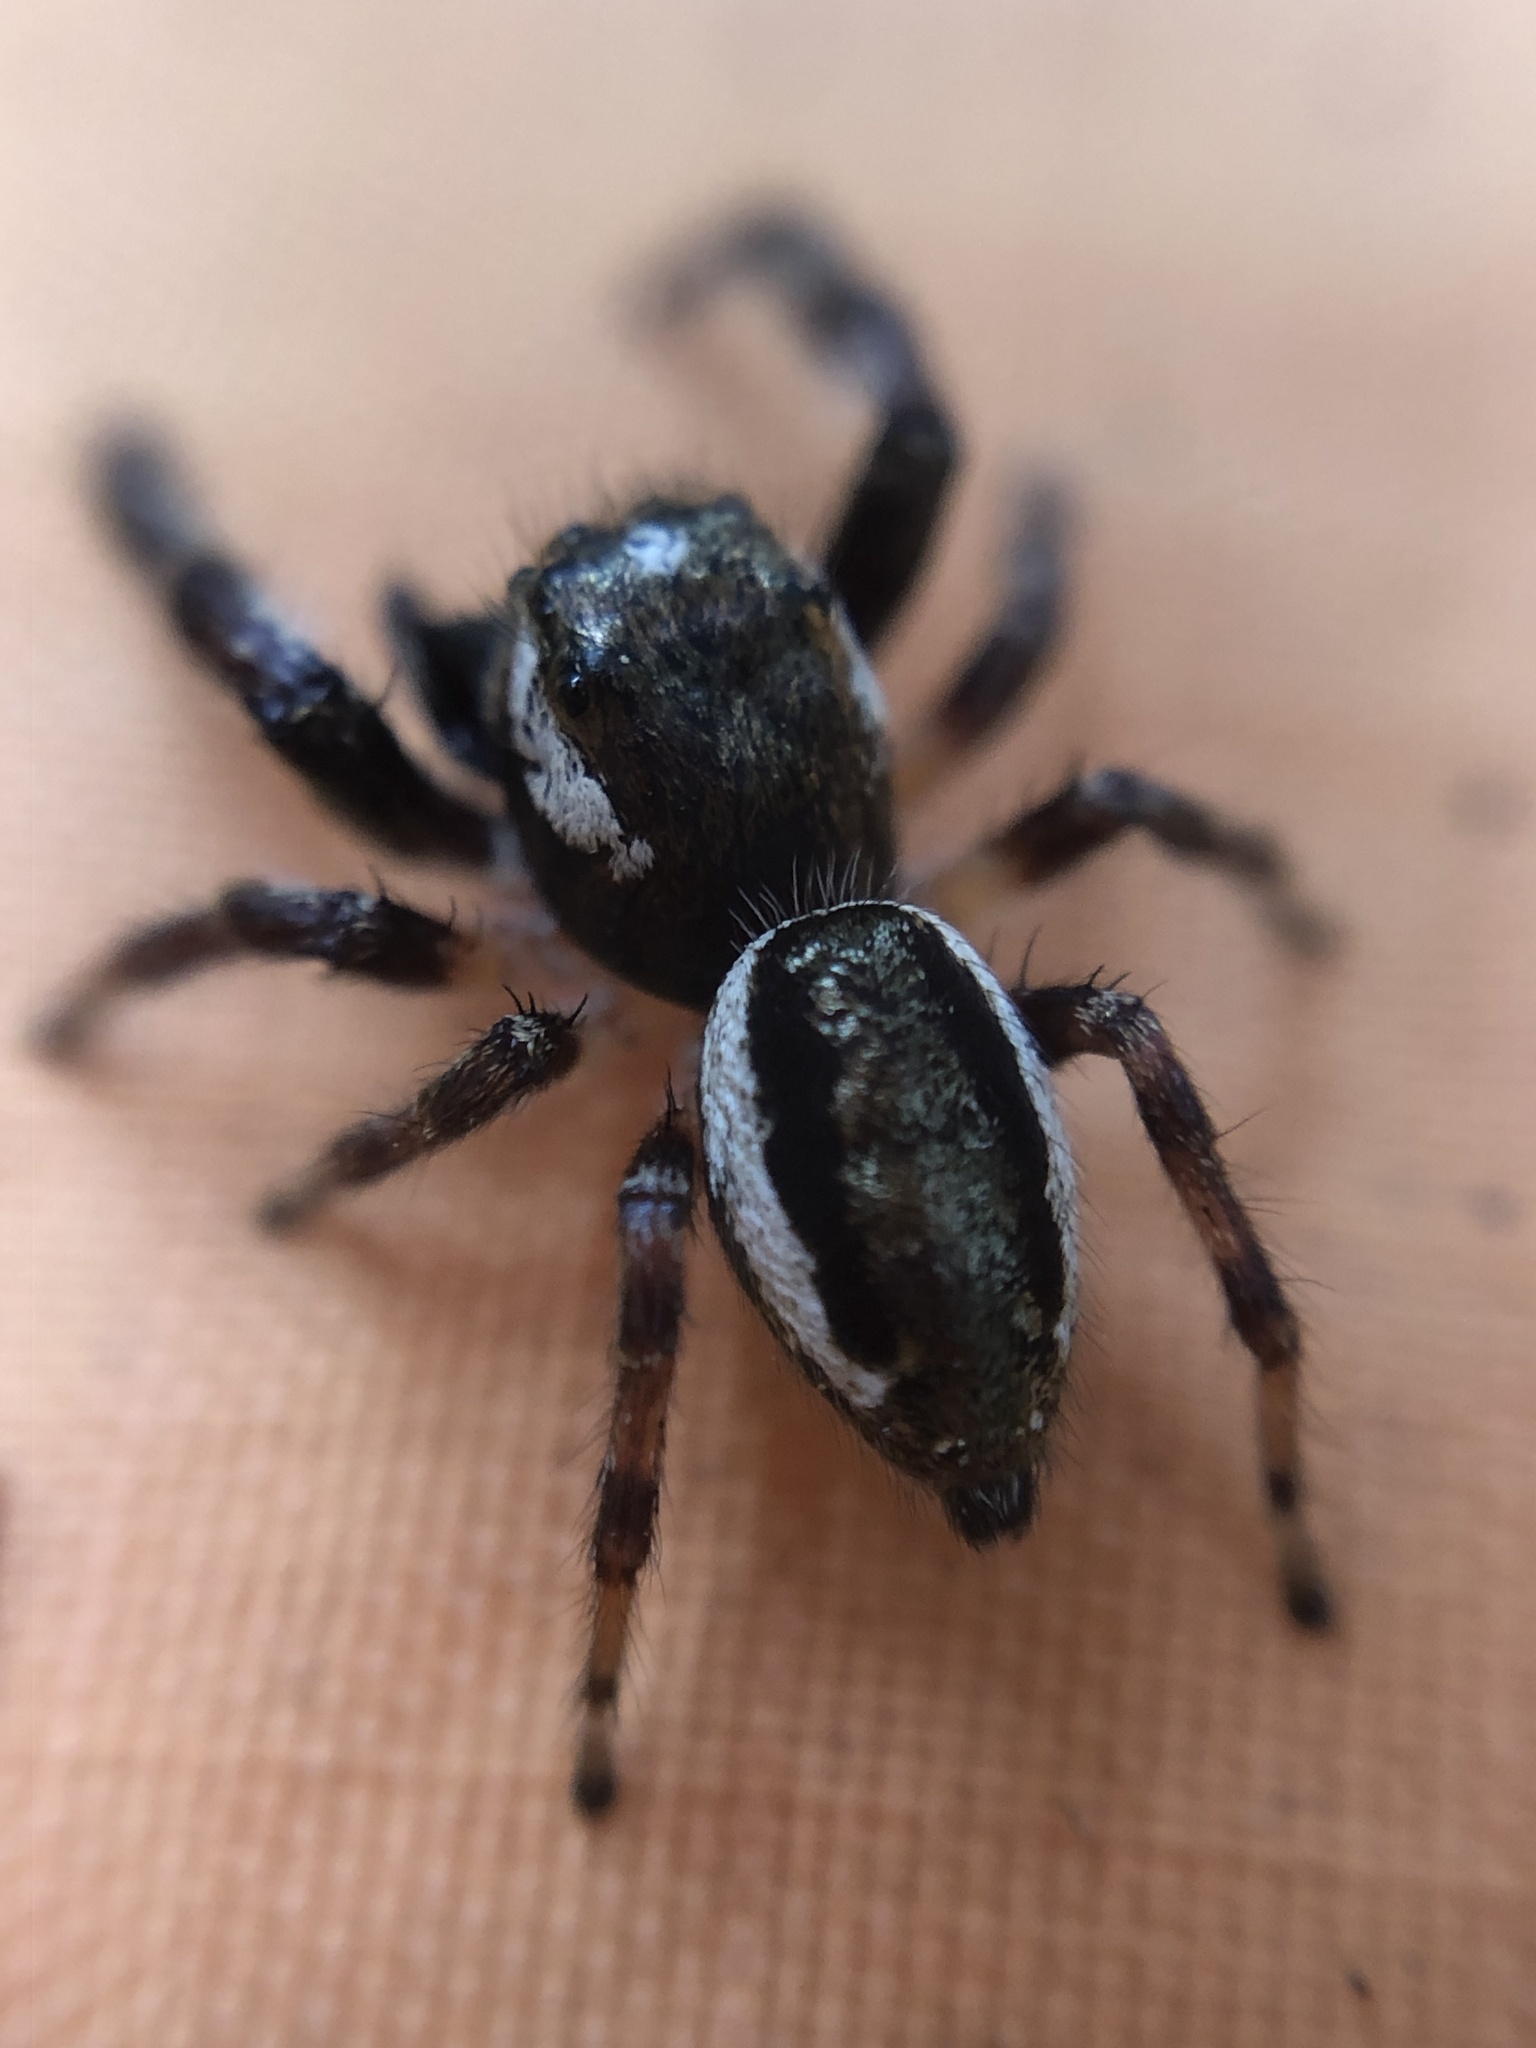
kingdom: Animalia
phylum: Arthropoda
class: Arachnida
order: Araneae
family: Salticidae
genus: Eris
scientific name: Eris militaris
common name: Bronze jumper
